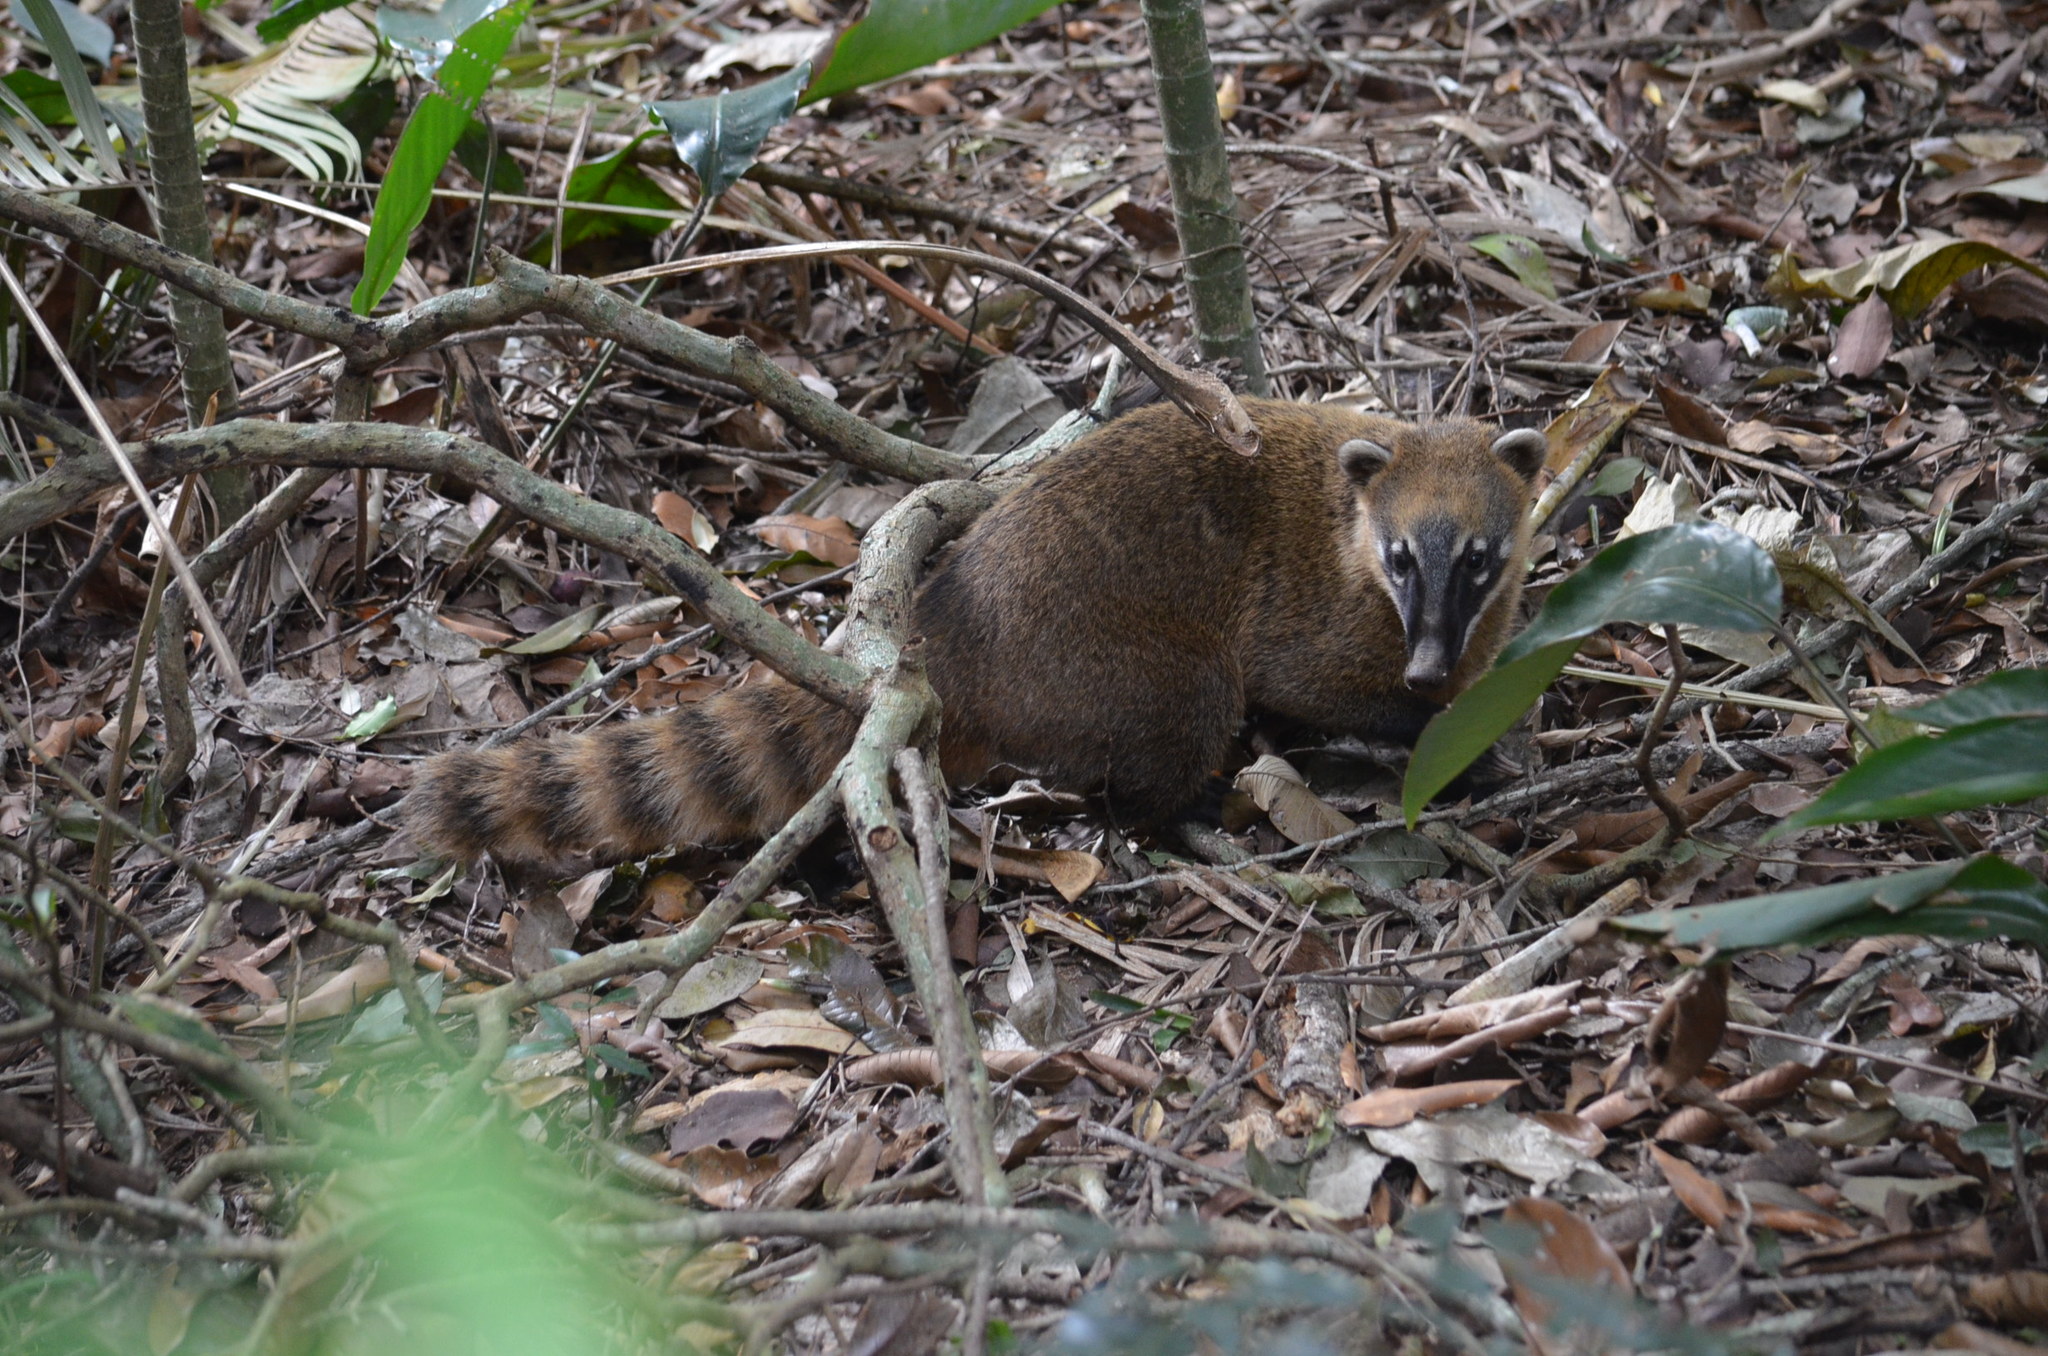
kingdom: Animalia
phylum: Chordata
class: Mammalia
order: Carnivora
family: Procyonidae
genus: Nasua
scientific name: Nasua nasua
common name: South american coati
